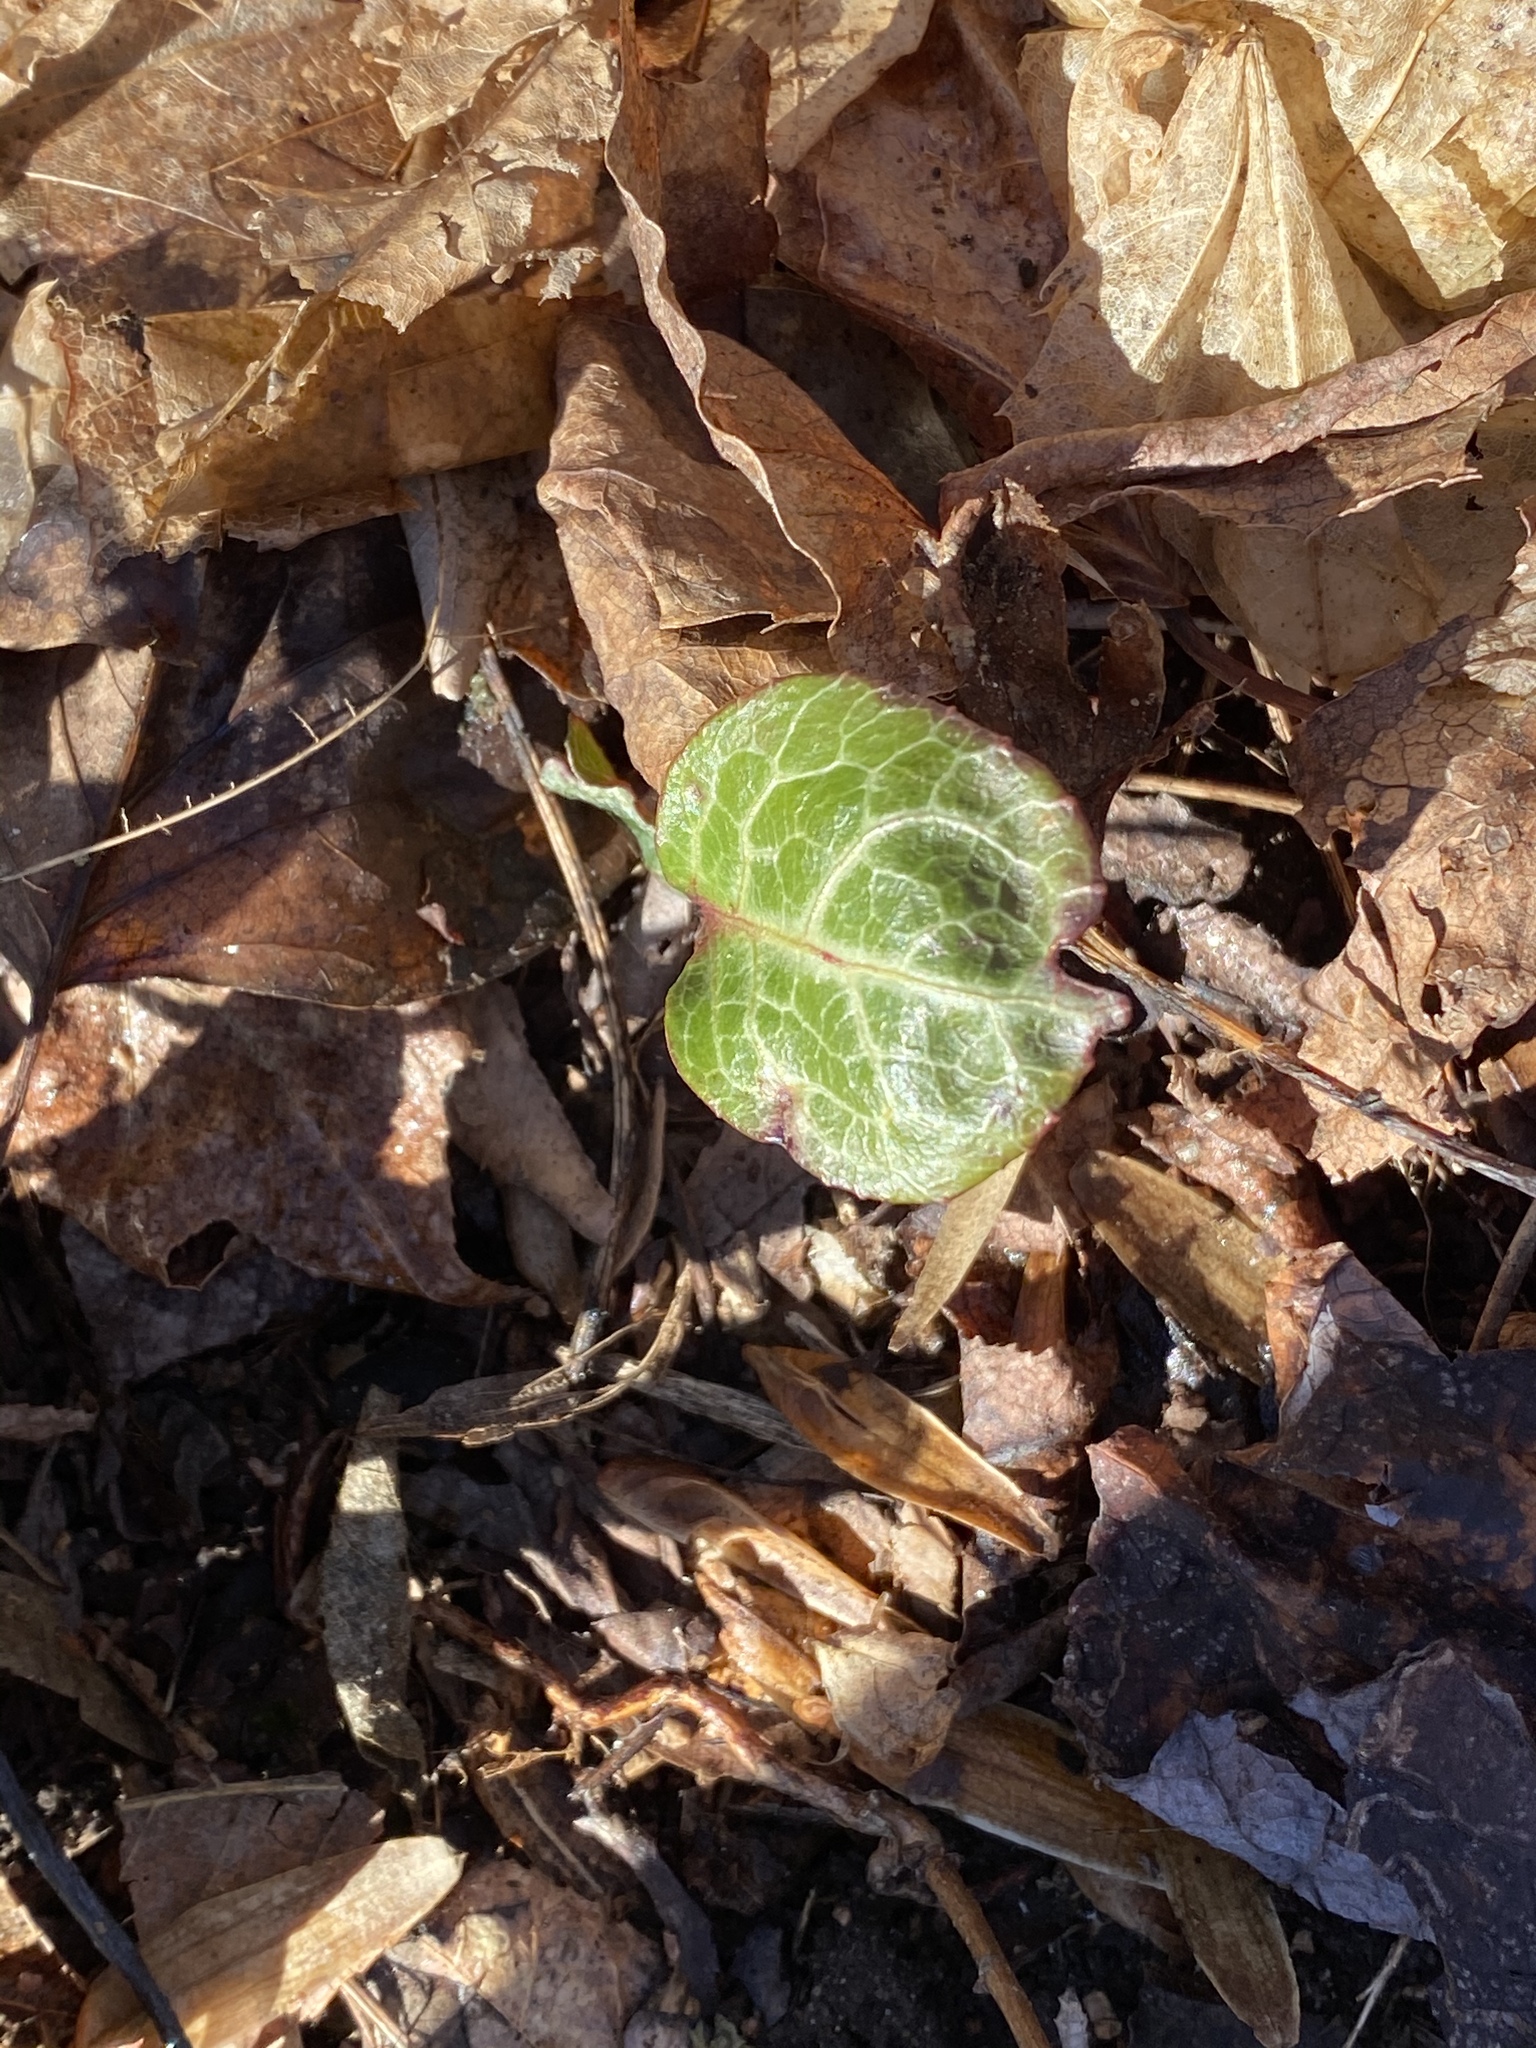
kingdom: Plantae
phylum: Tracheophyta
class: Magnoliopsida
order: Ericales
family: Ericaceae
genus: Pyrola
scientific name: Pyrola americana
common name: American wintergreen
